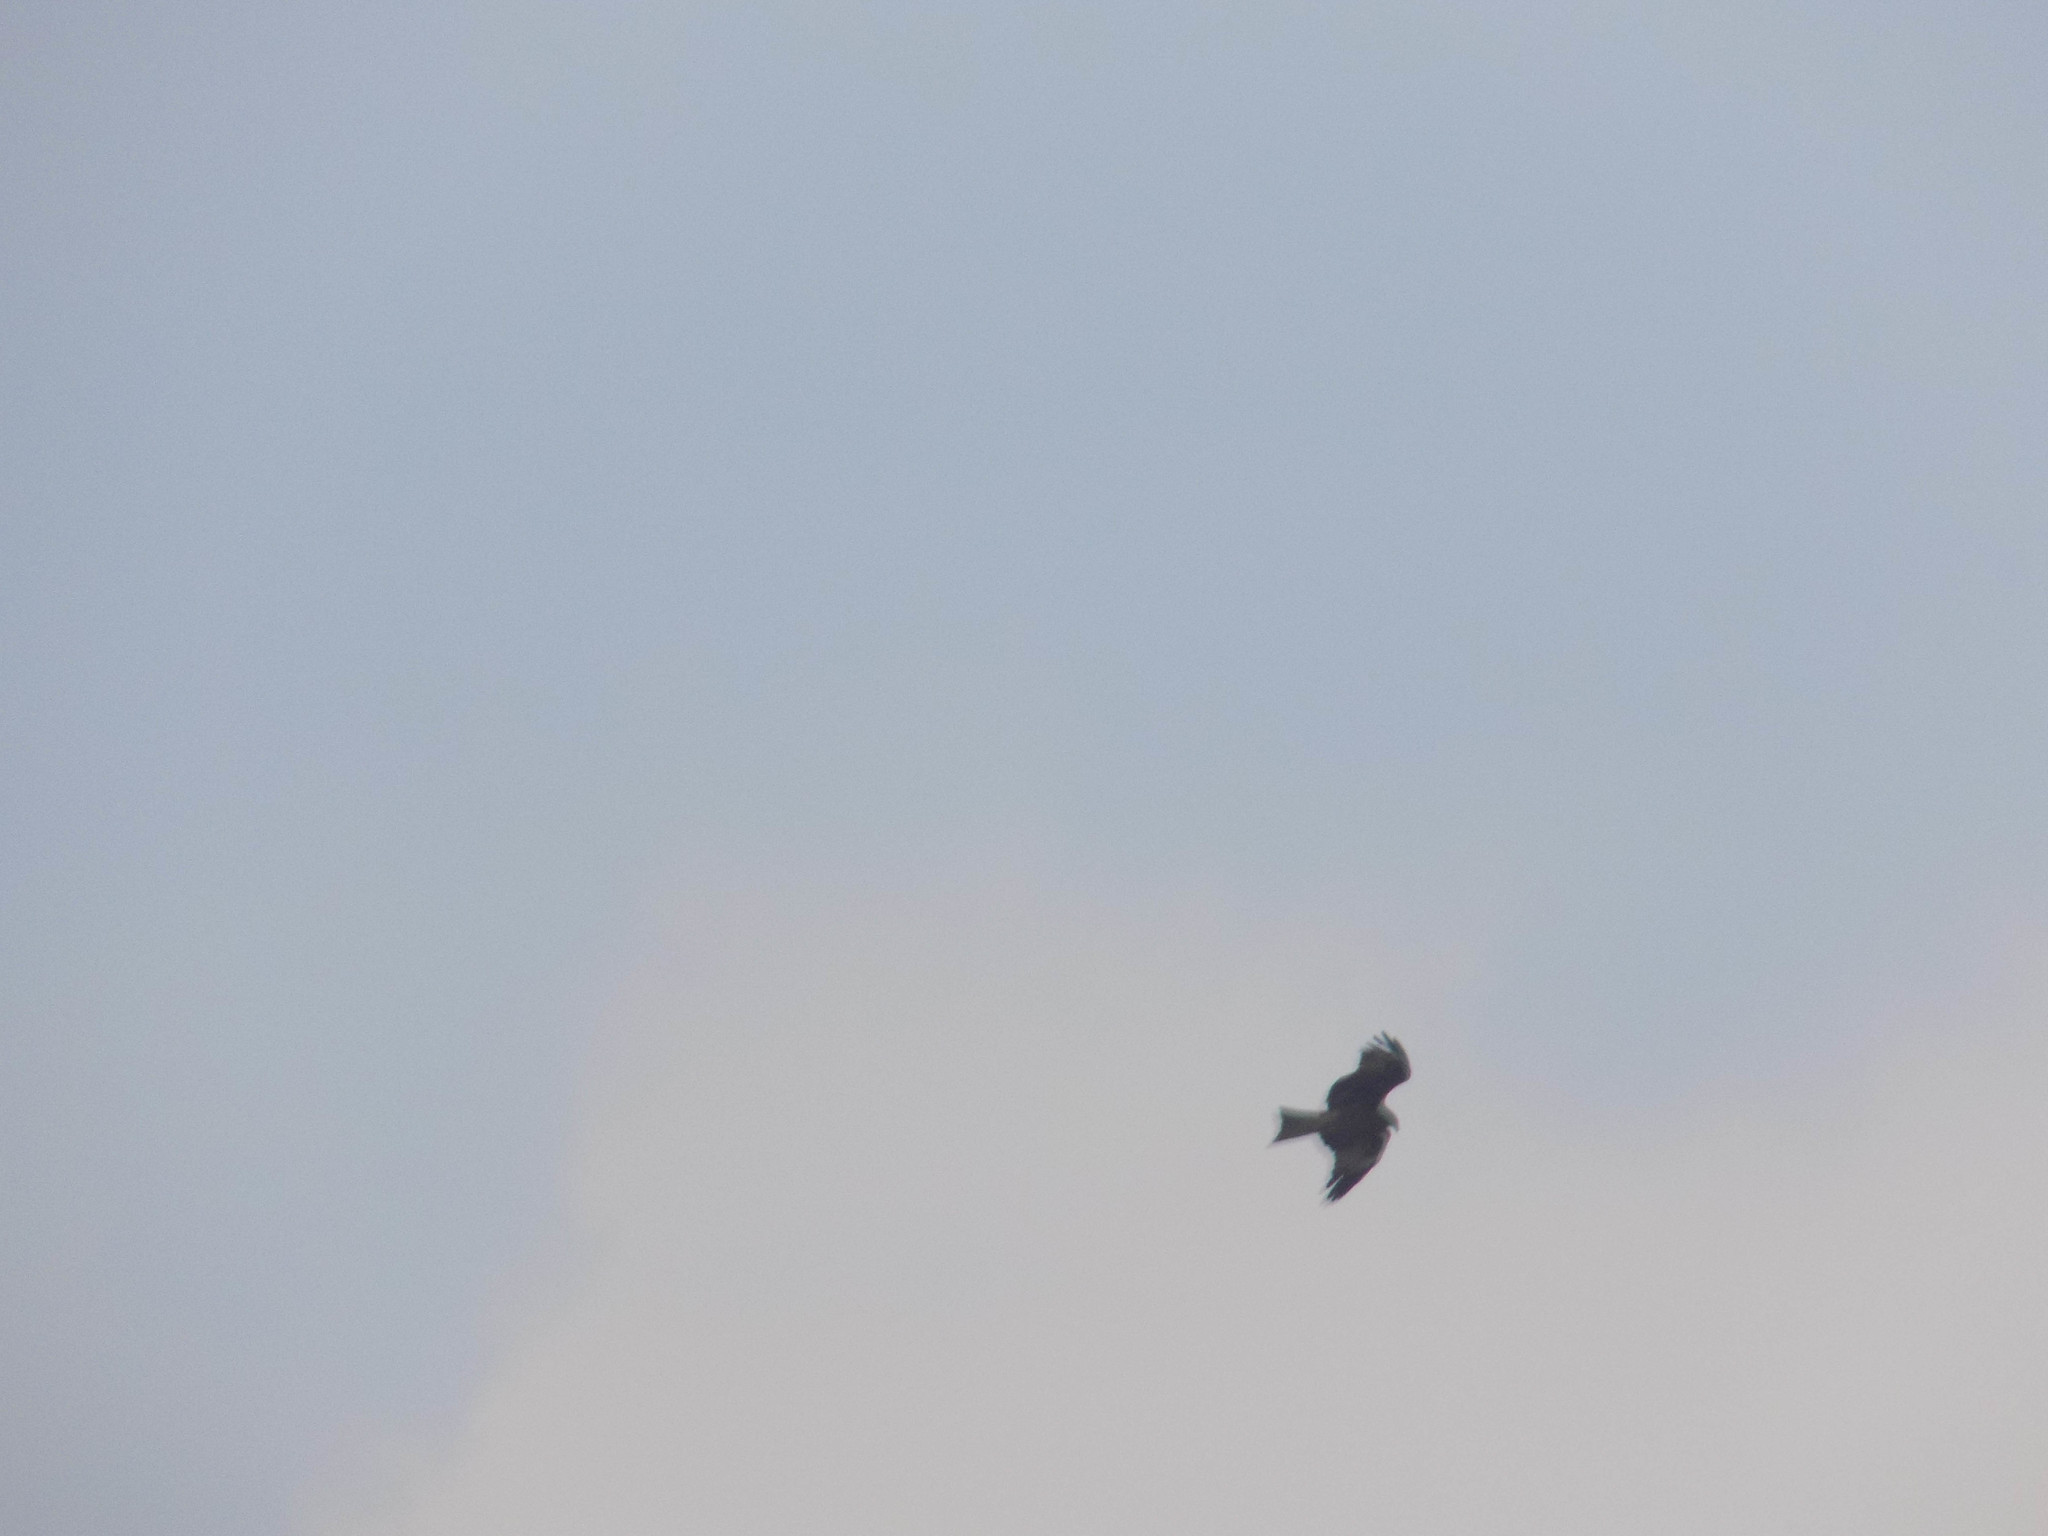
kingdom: Animalia
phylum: Chordata
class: Aves
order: Accipitriformes
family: Accipitridae
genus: Milvus
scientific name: Milvus migrans
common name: Black kite
